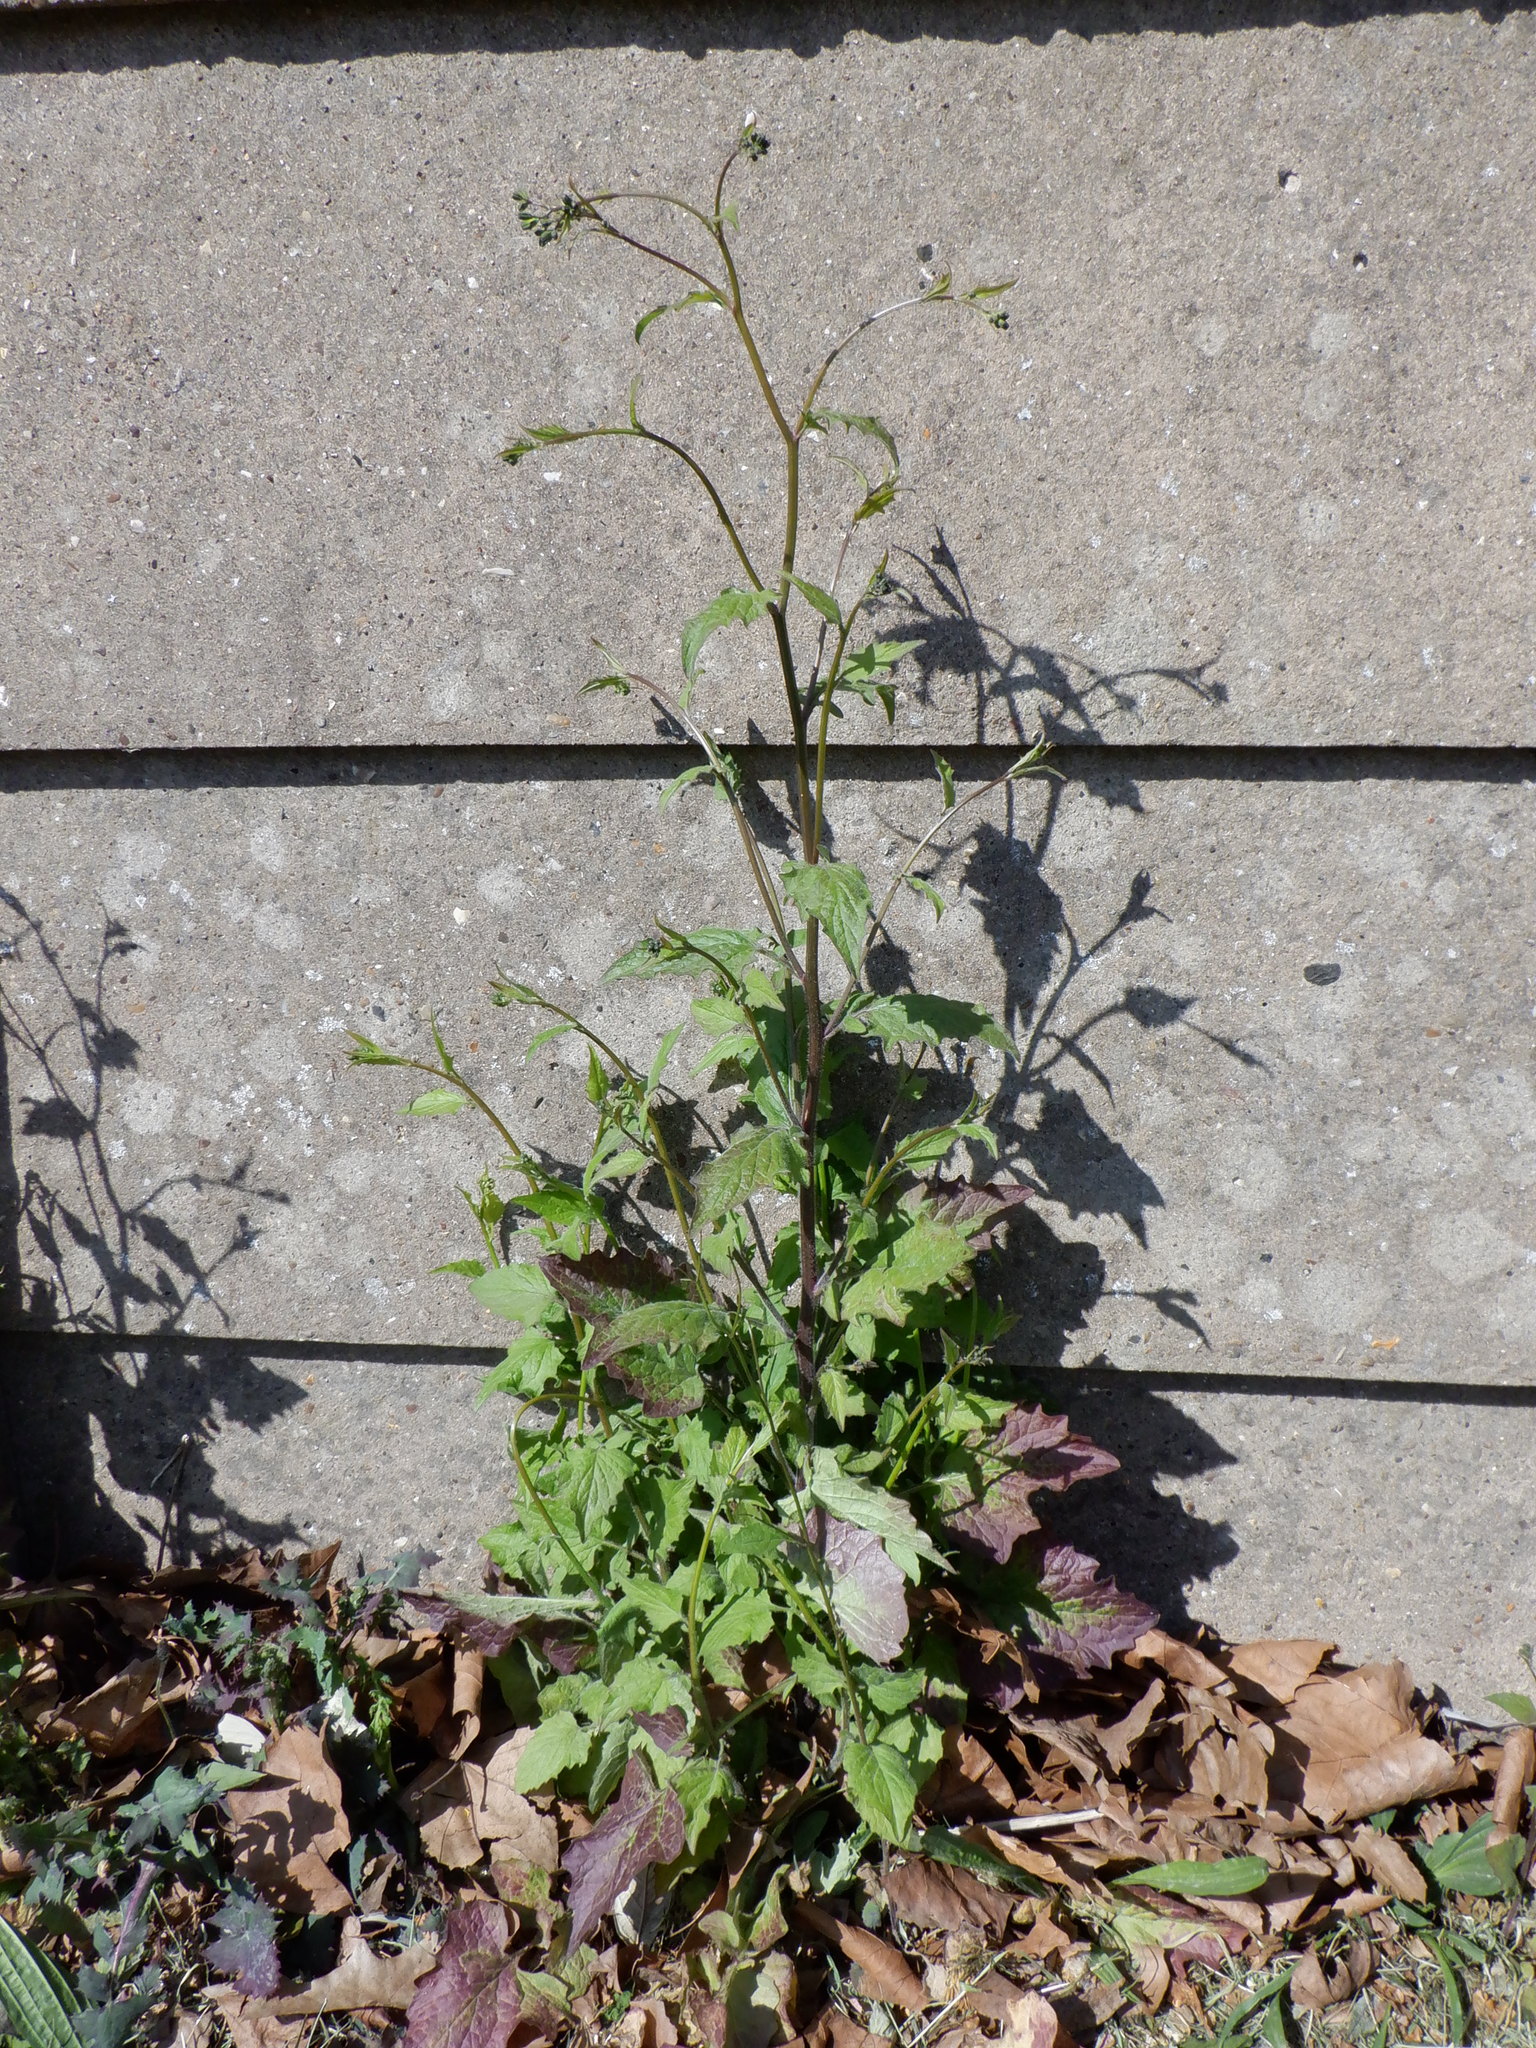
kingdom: Plantae
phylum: Tracheophyta
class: Magnoliopsida
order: Asterales
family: Asteraceae
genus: Lapsana
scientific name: Lapsana communis
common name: Nipplewort
